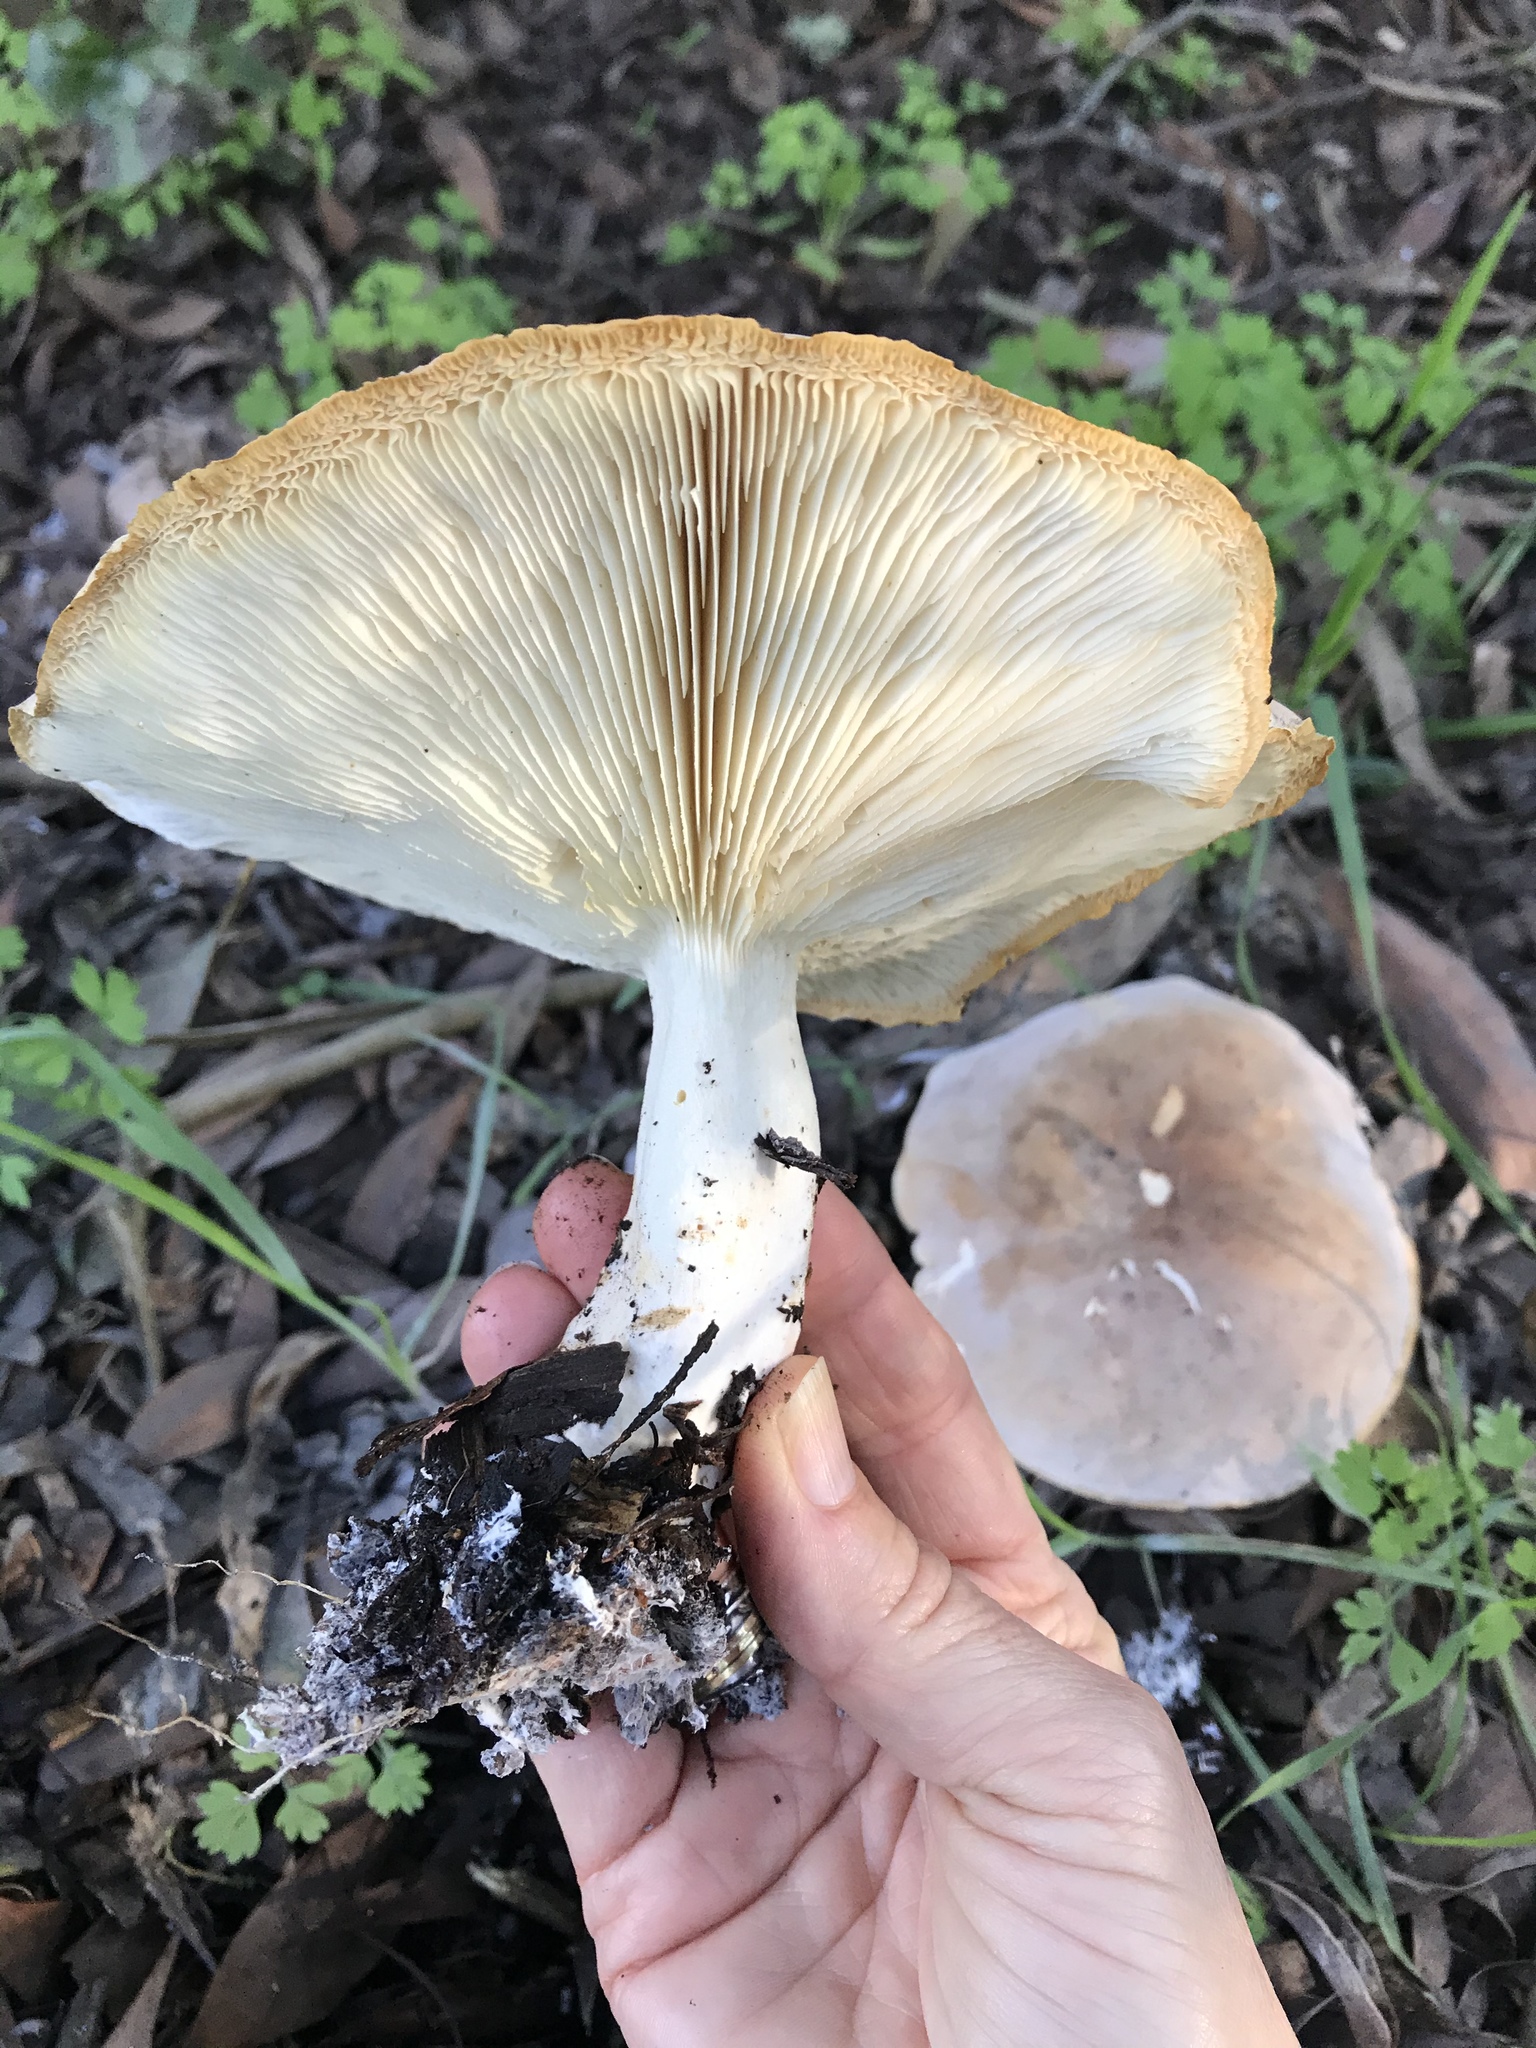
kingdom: Fungi
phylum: Basidiomycota
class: Agaricomycetes
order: Agaricales
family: Tricholomataceae
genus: Leucopaxillus
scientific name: Leucopaxillus gentianeus
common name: Bitter funnel
